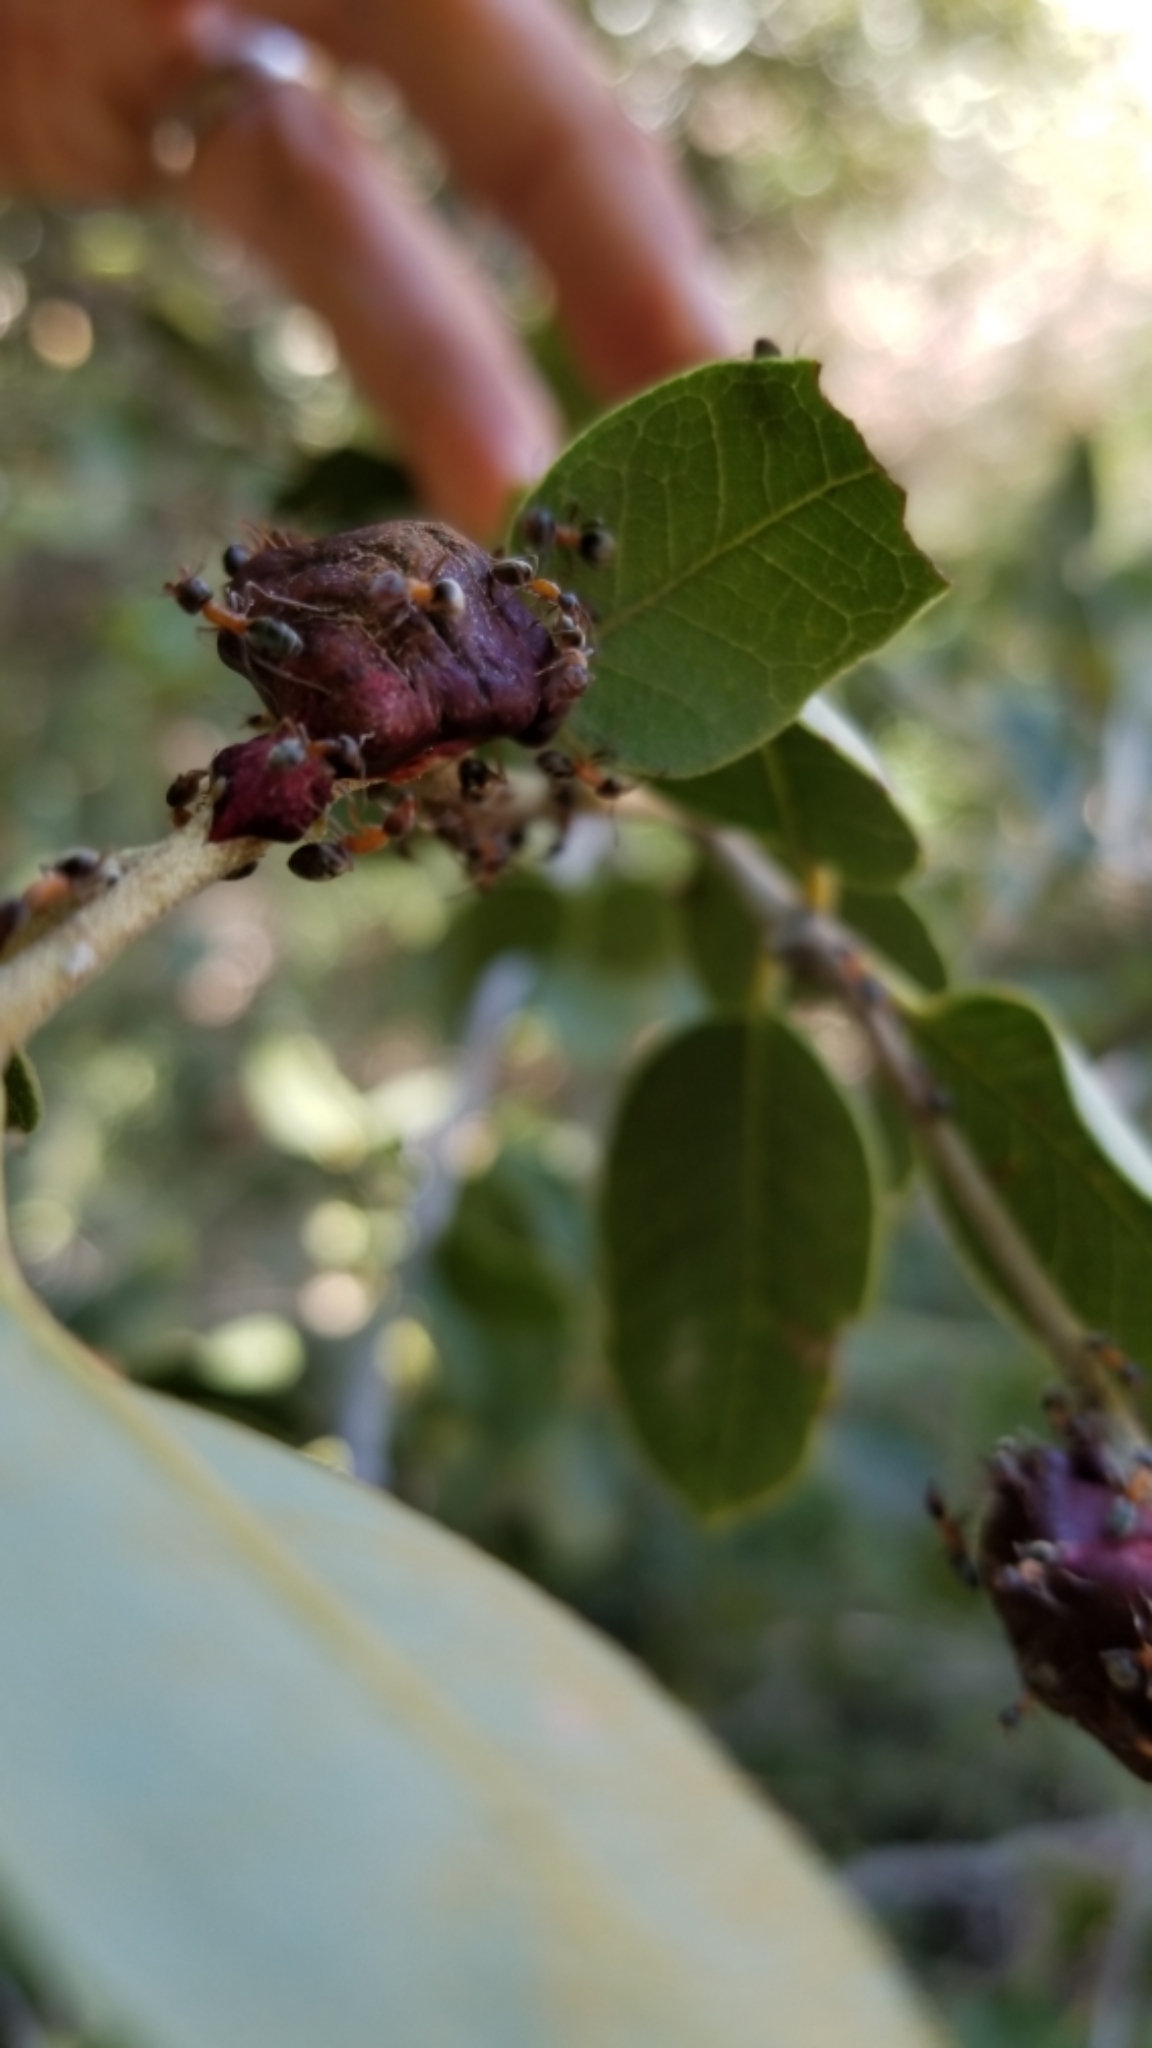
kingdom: Animalia
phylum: Arthropoda
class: Insecta
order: Hymenoptera
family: Formicidae
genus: Liometopum
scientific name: Liometopum occidentale
